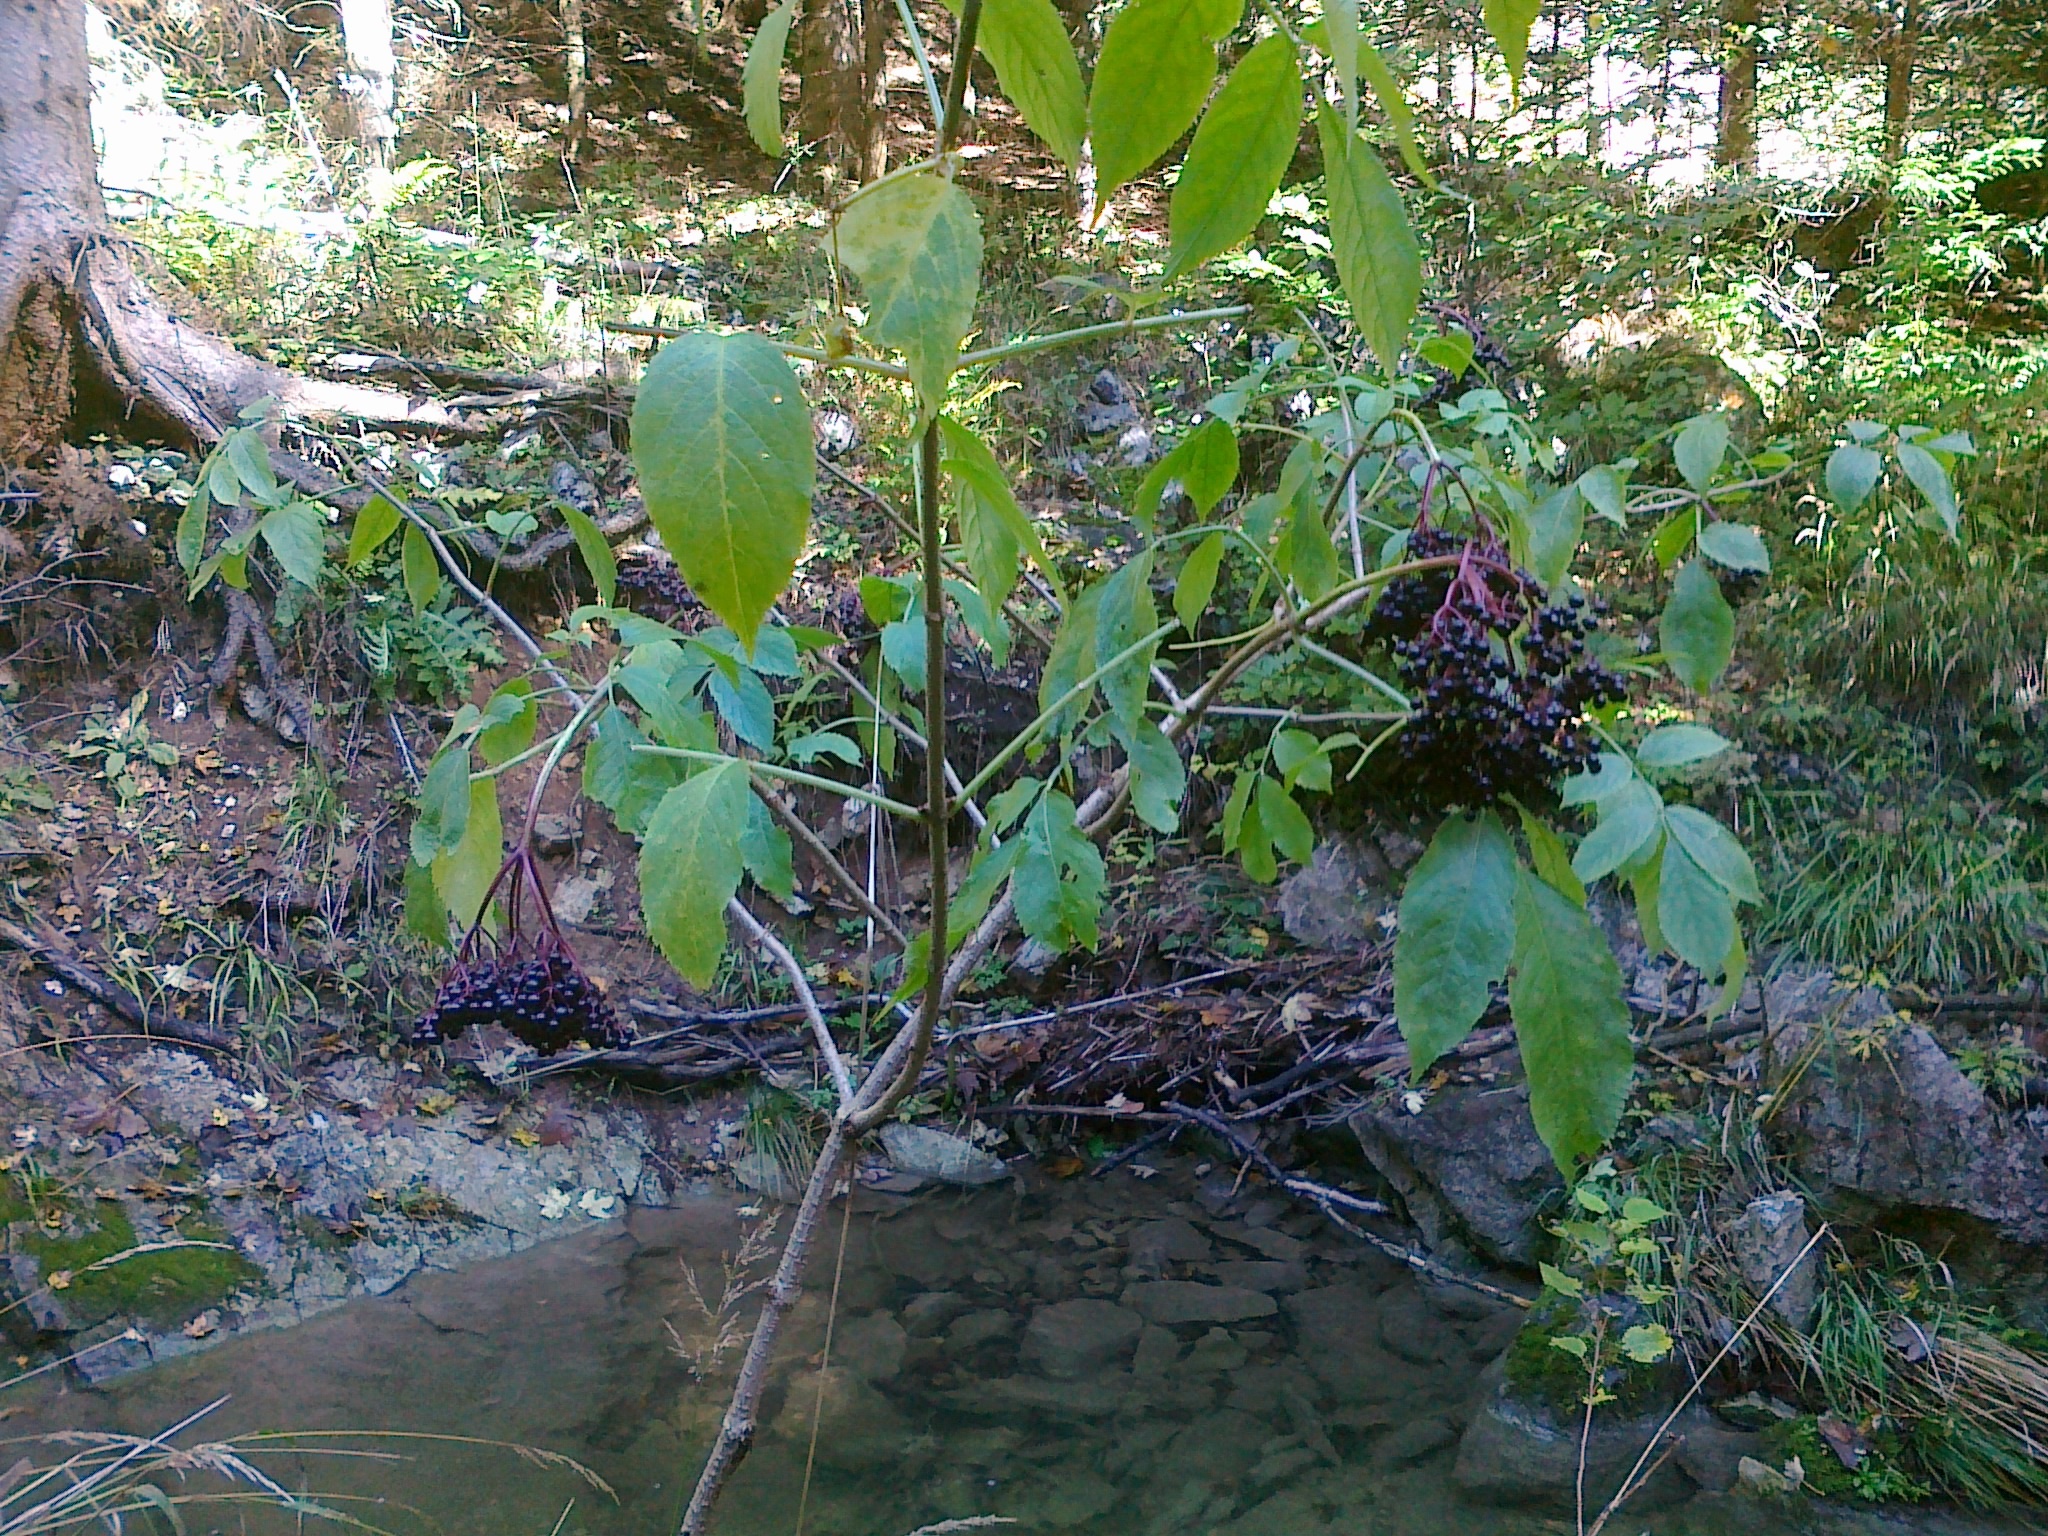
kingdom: Plantae
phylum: Tracheophyta
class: Magnoliopsida
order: Dipsacales
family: Viburnaceae
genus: Sambucus
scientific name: Sambucus nigra
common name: Elder
